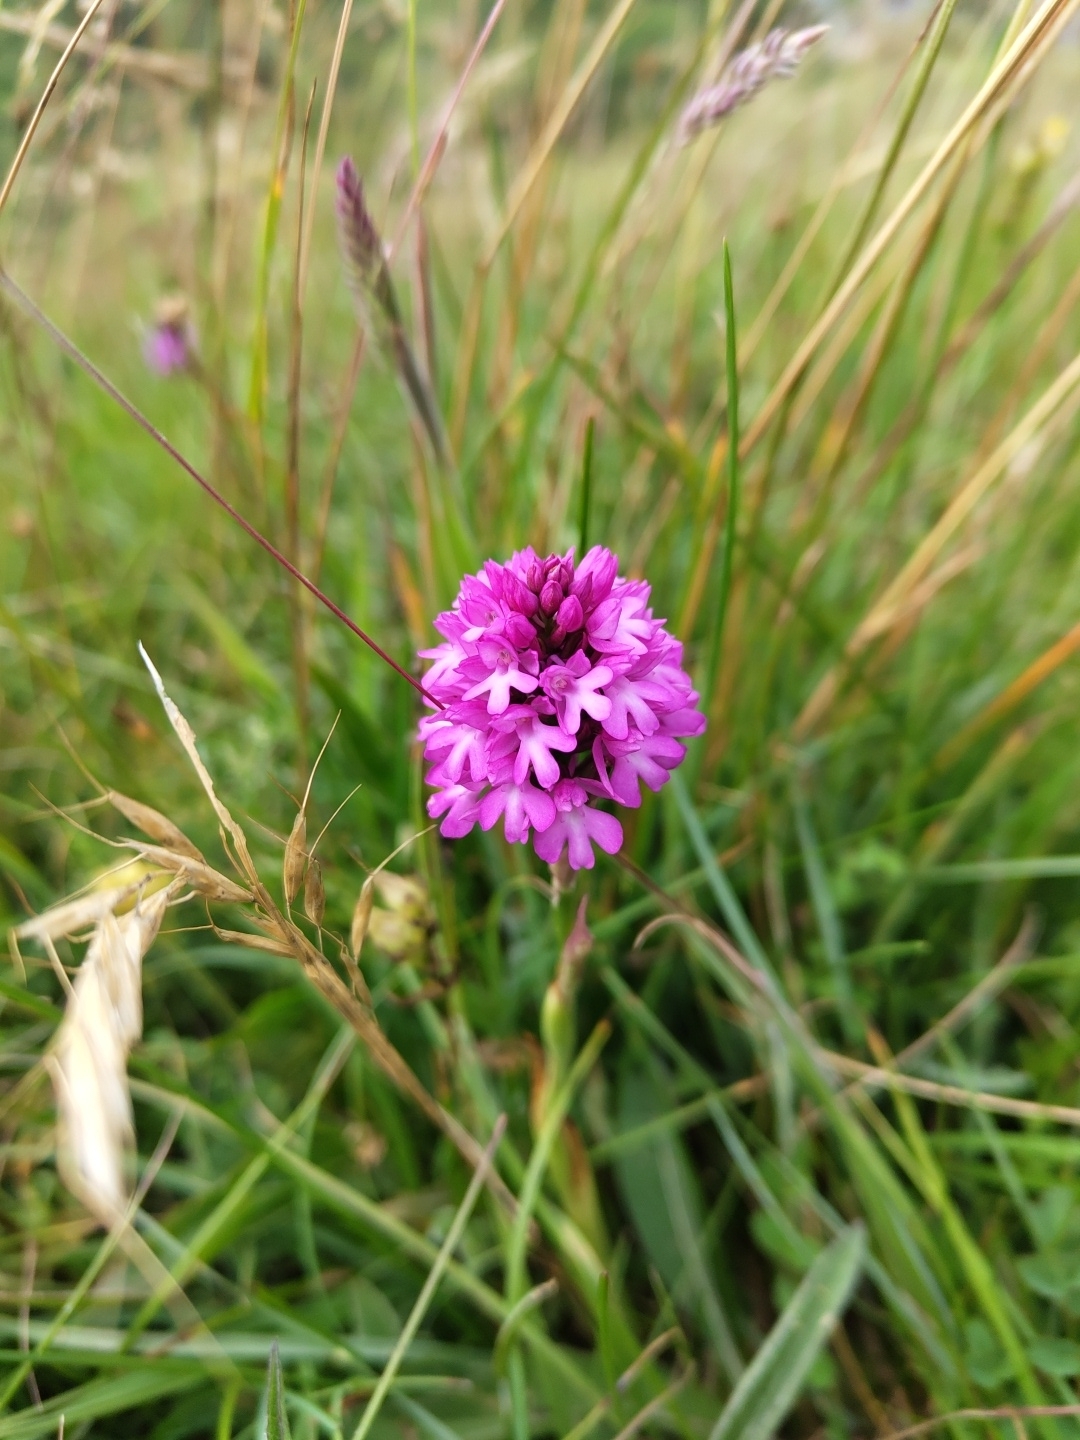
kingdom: Plantae
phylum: Tracheophyta
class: Liliopsida
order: Asparagales
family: Orchidaceae
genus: Anacamptis
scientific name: Anacamptis pyramidalis
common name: Pyramidal orchid
